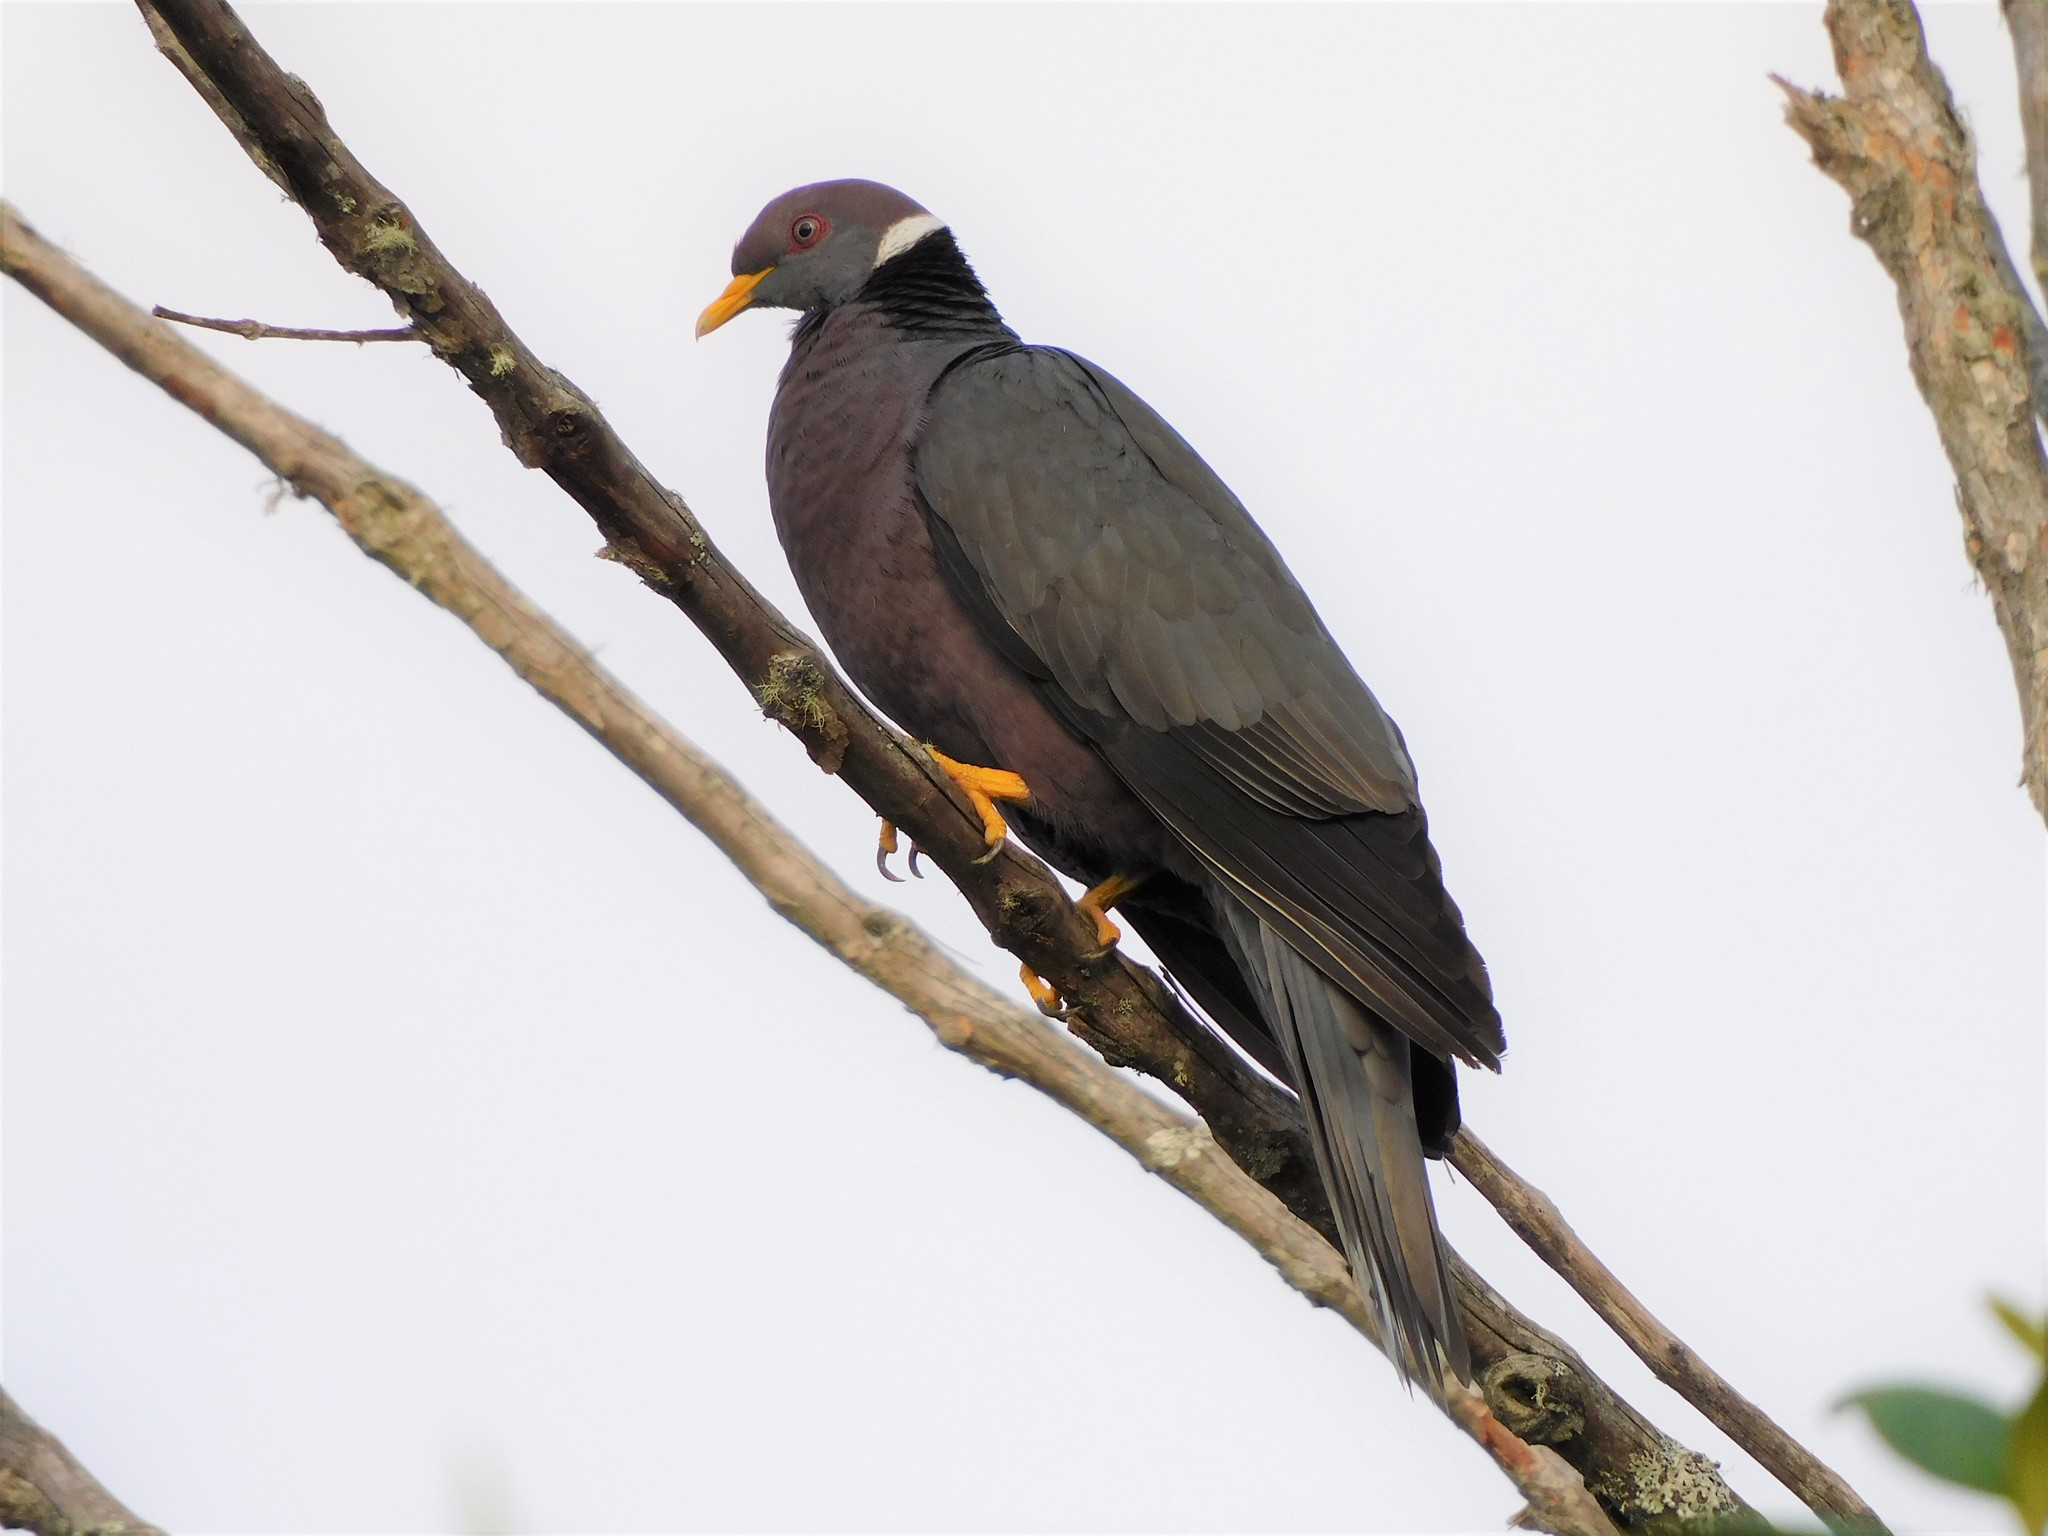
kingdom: Animalia
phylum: Chordata
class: Aves
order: Columbiformes
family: Columbidae
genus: Patagioenas
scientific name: Patagioenas fasciata
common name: Band-tailed pigeon
